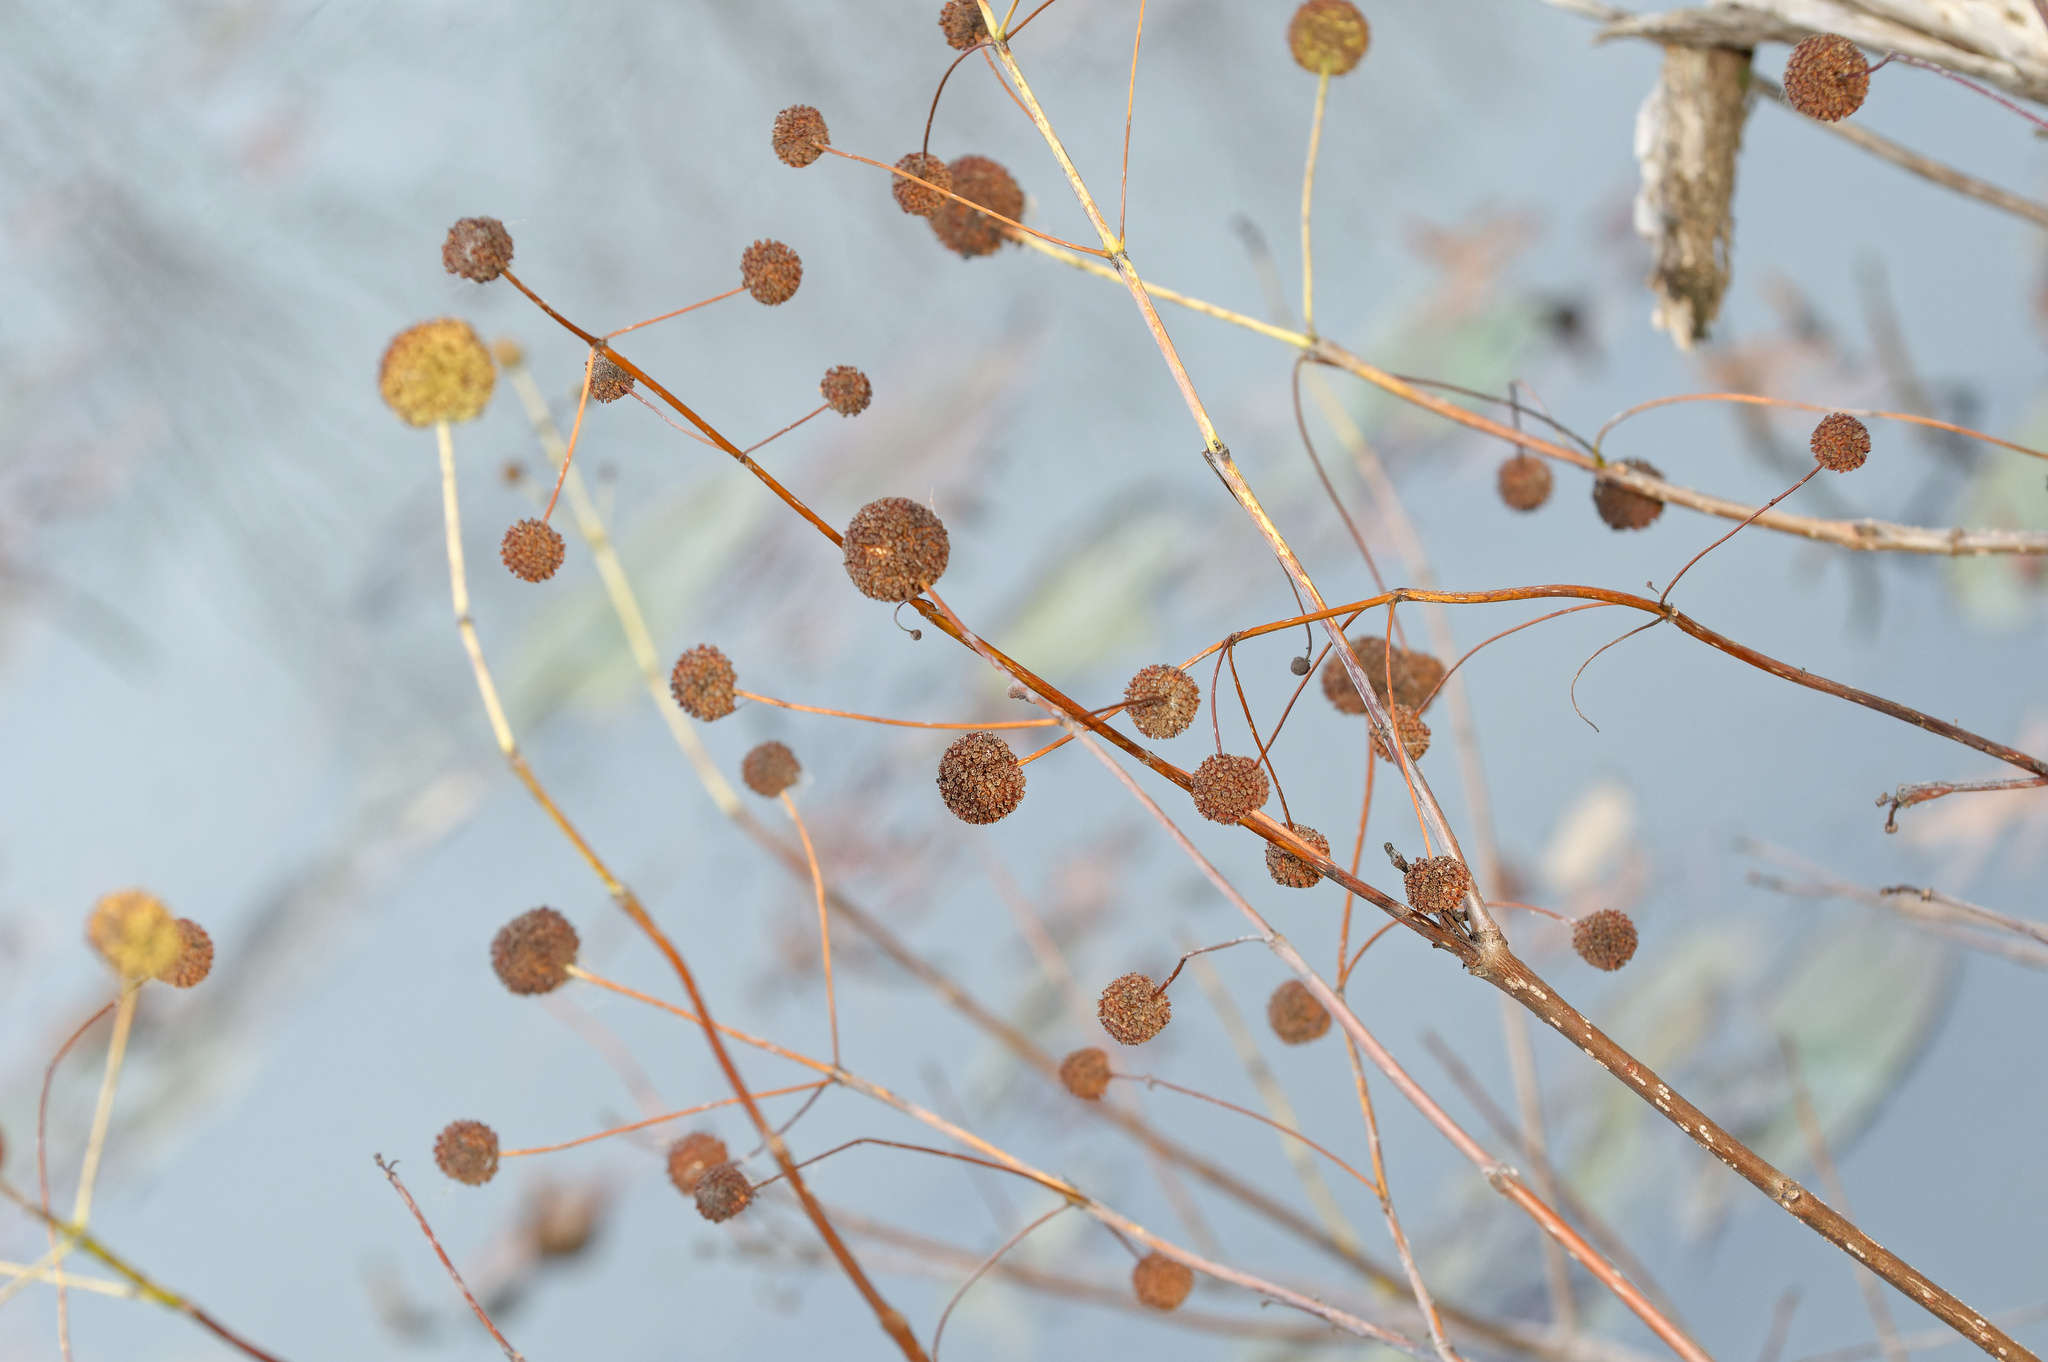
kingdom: Plantae
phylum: Tracheophyta
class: Magnoliopsida
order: Gentianales
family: Rubiaceae
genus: Cephalanthus
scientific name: Cephalanthus occidentalis
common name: Button-willow
